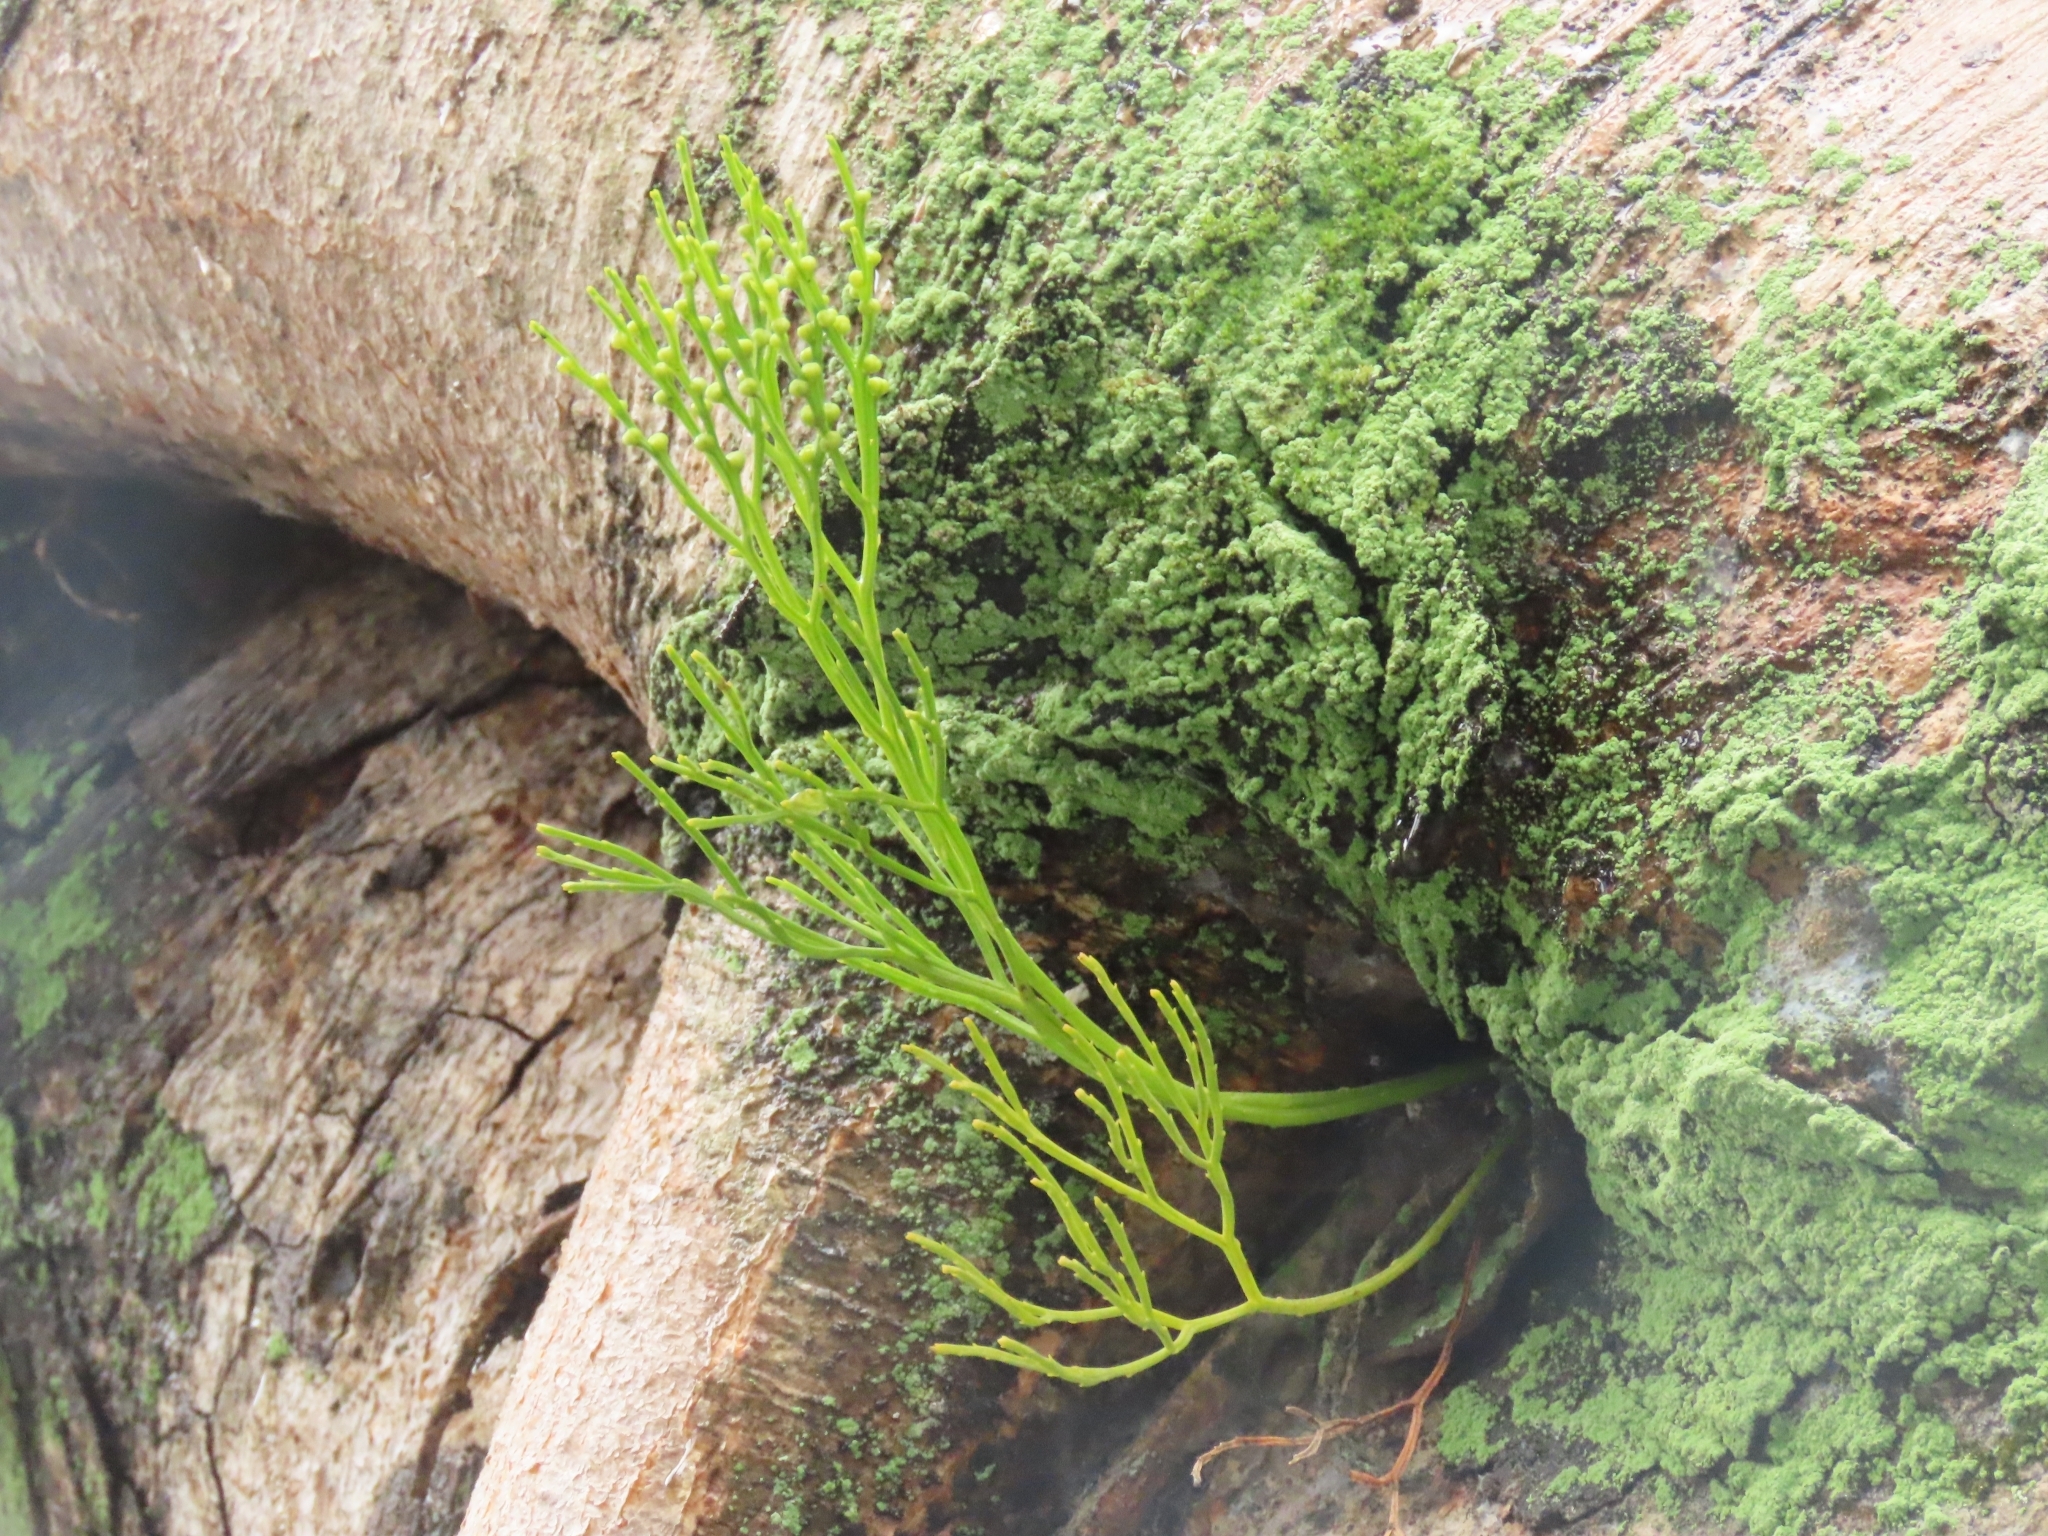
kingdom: Plantae
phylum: Tracheophyta
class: Polypodiopsida
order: Psilotales
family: Psilotaceae
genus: Psilotum
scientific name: Psilotum nudum
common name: Skeleton fork fern
